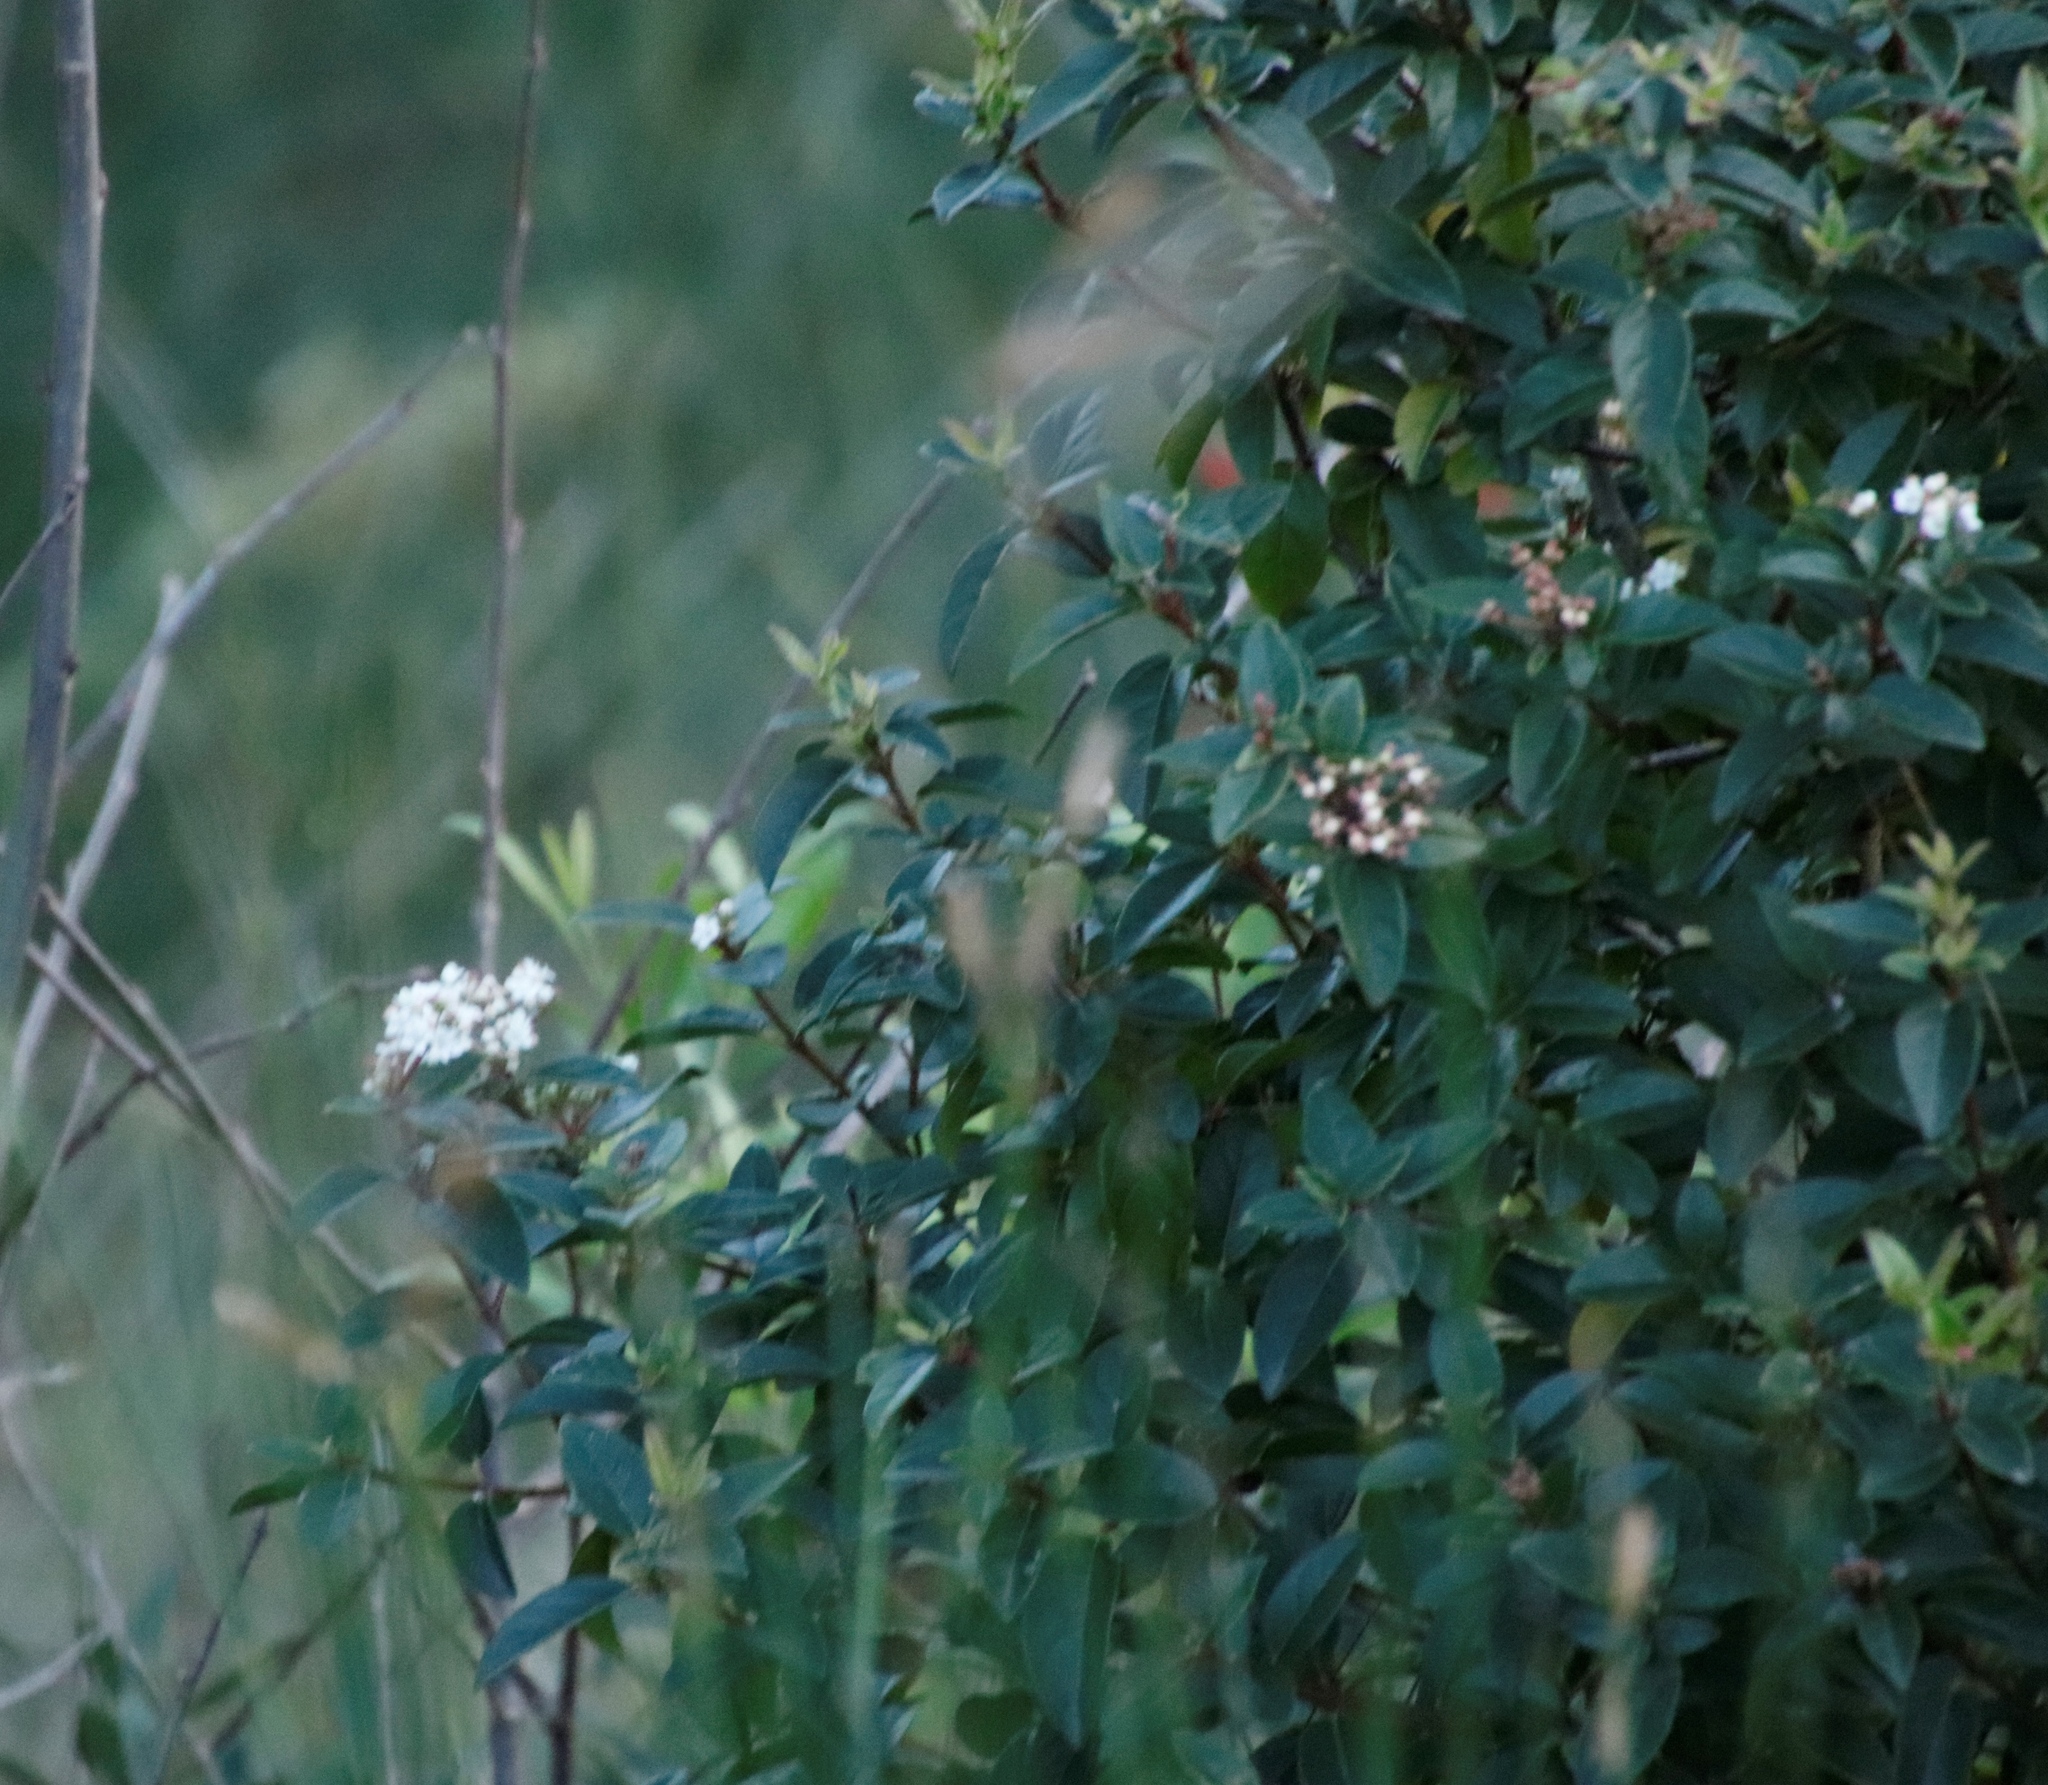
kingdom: Plantae
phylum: Tracheophyta
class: Magnoliopsida
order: Dipsacales
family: Viburnaceae
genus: Viburnum
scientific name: Viburnum tinus
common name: Laurustinus
